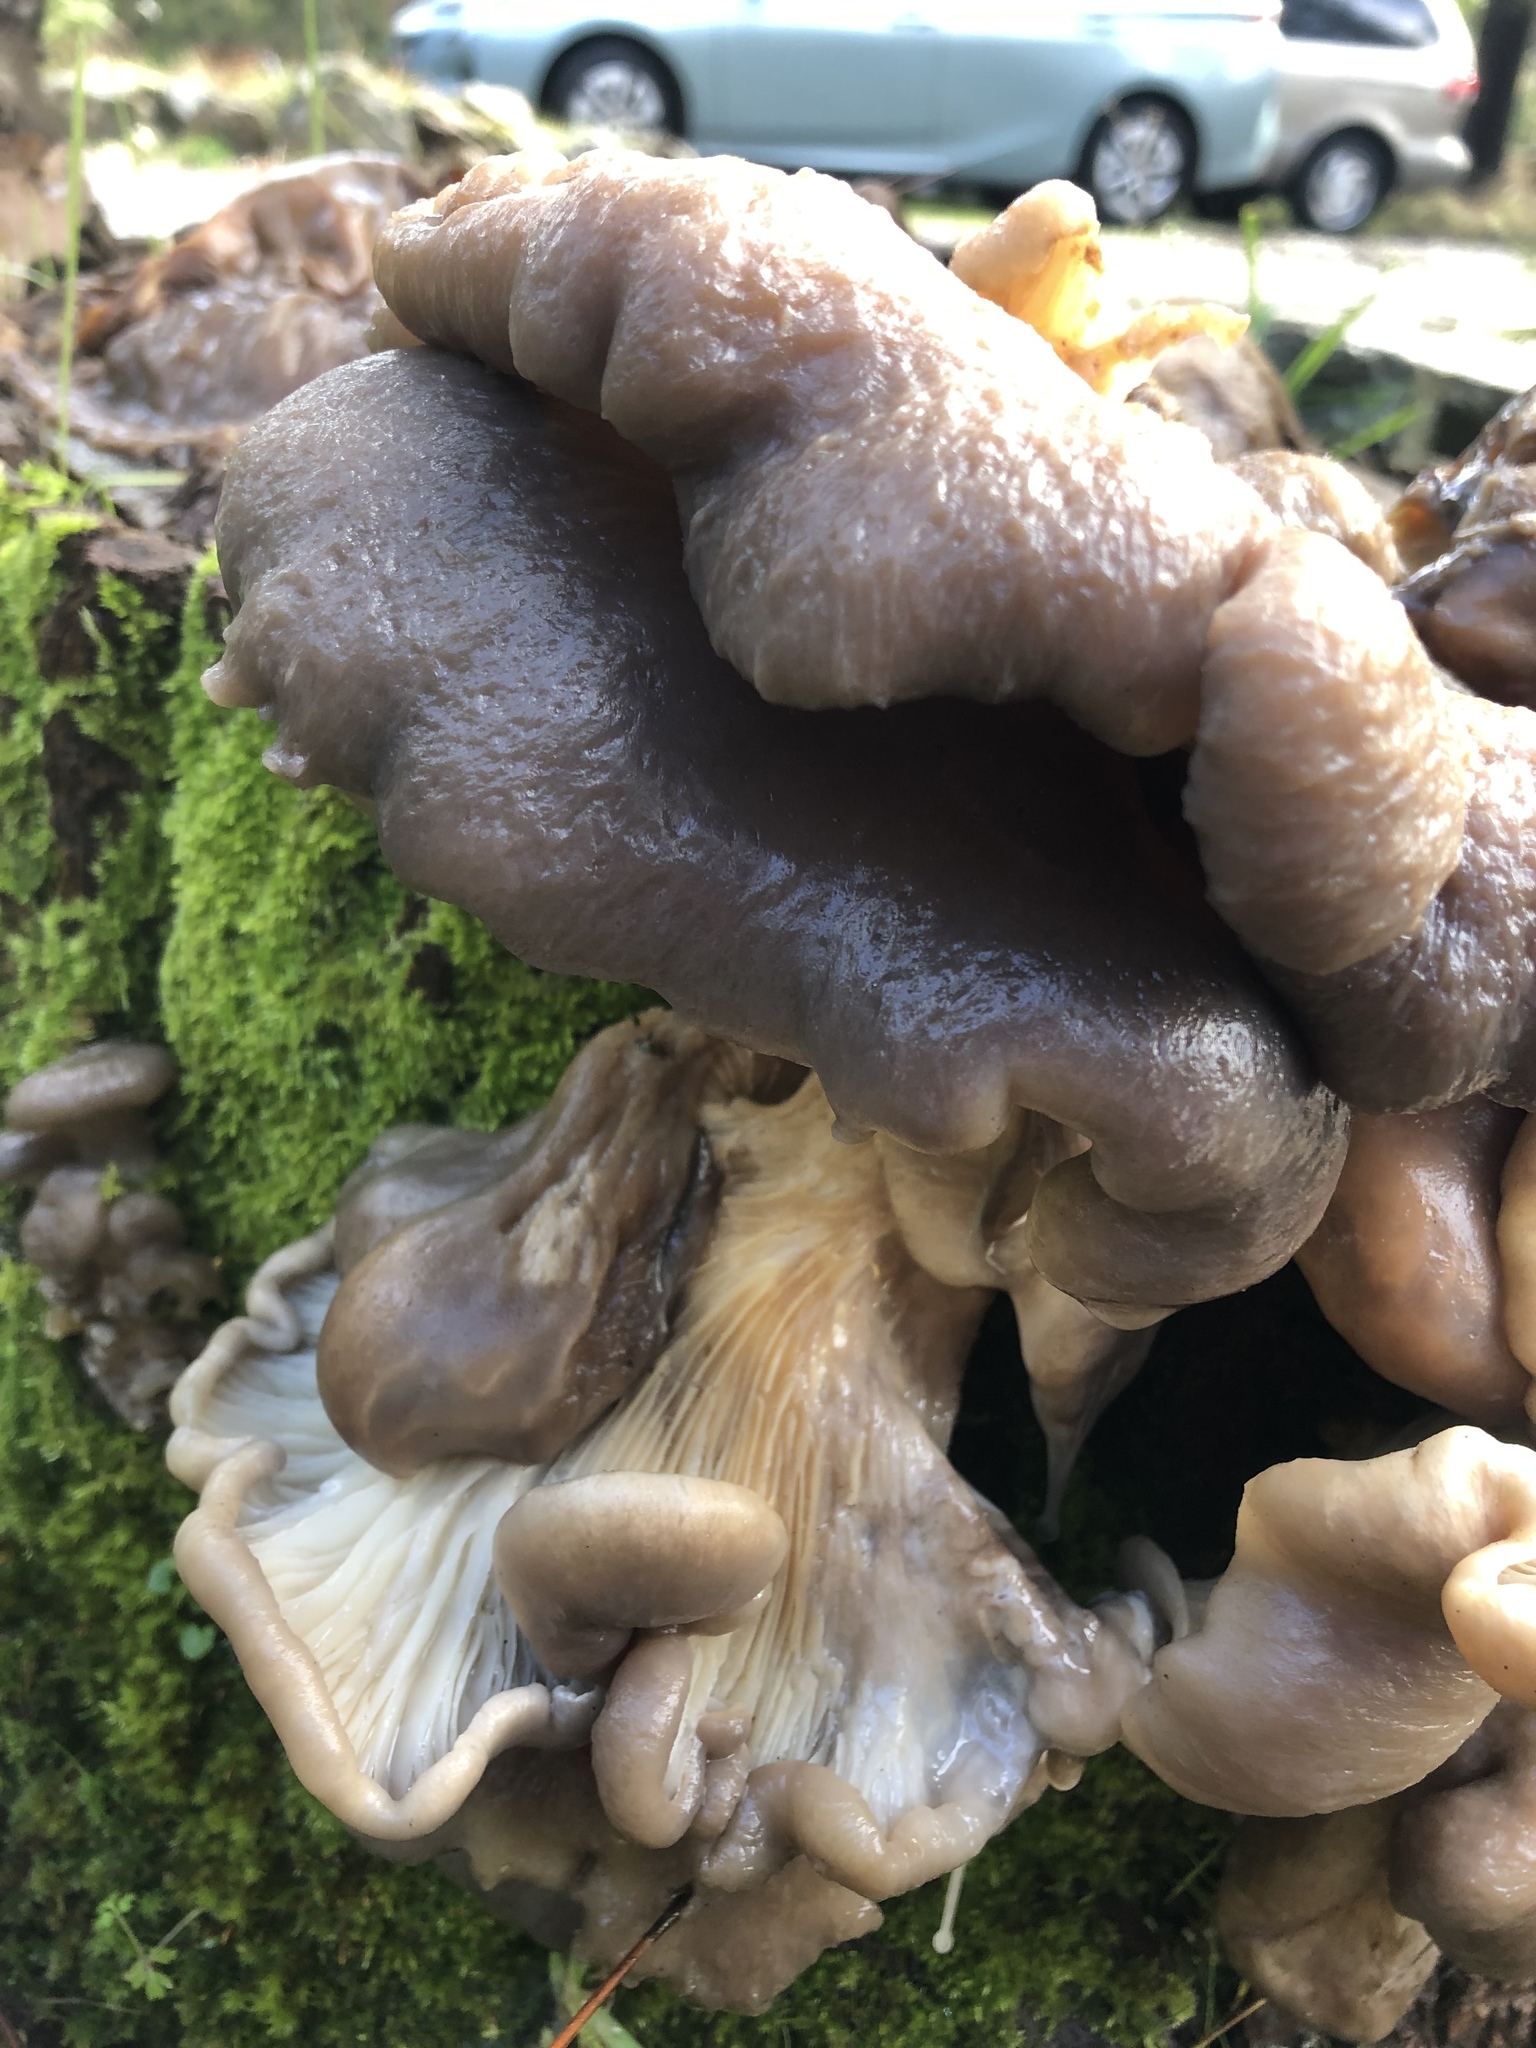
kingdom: Fungi
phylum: Basidiomycota
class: Agaricomycetes
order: Agaricales
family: Pleurotaceae
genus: Pleurotus
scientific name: Pleurotus ostreatus
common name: Oyster mushroom
